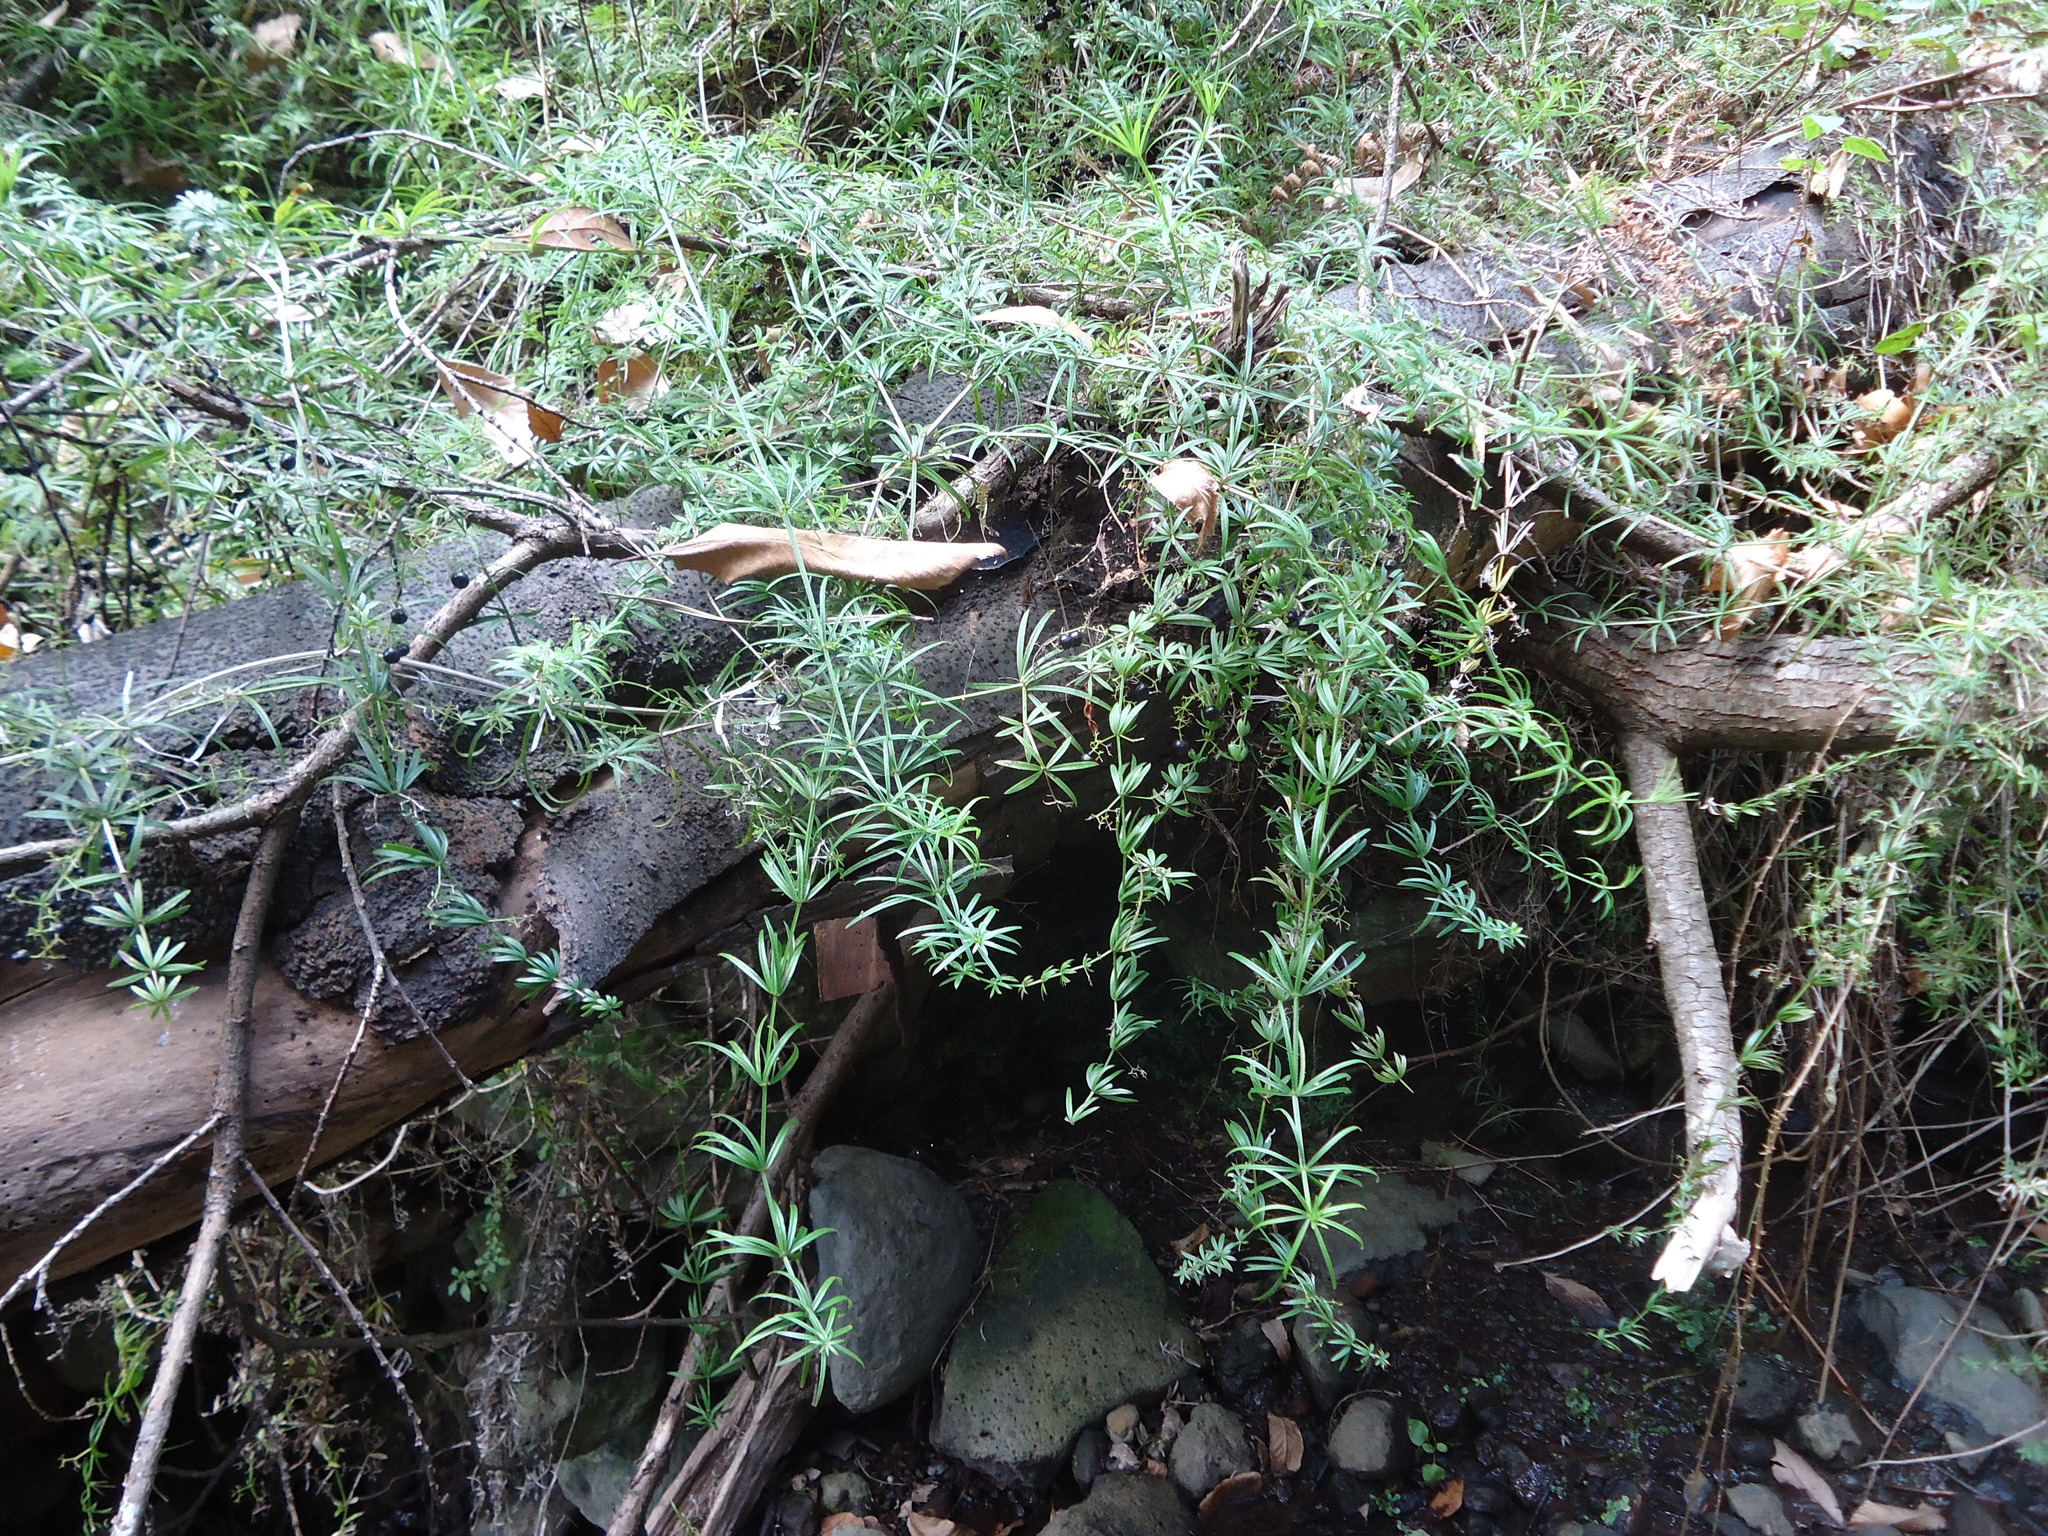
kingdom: Plantae
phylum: Tracheophyta
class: Magnoliopsida
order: Gentianales
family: Rubiaceae
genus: Rubia
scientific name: Rubia occidens
